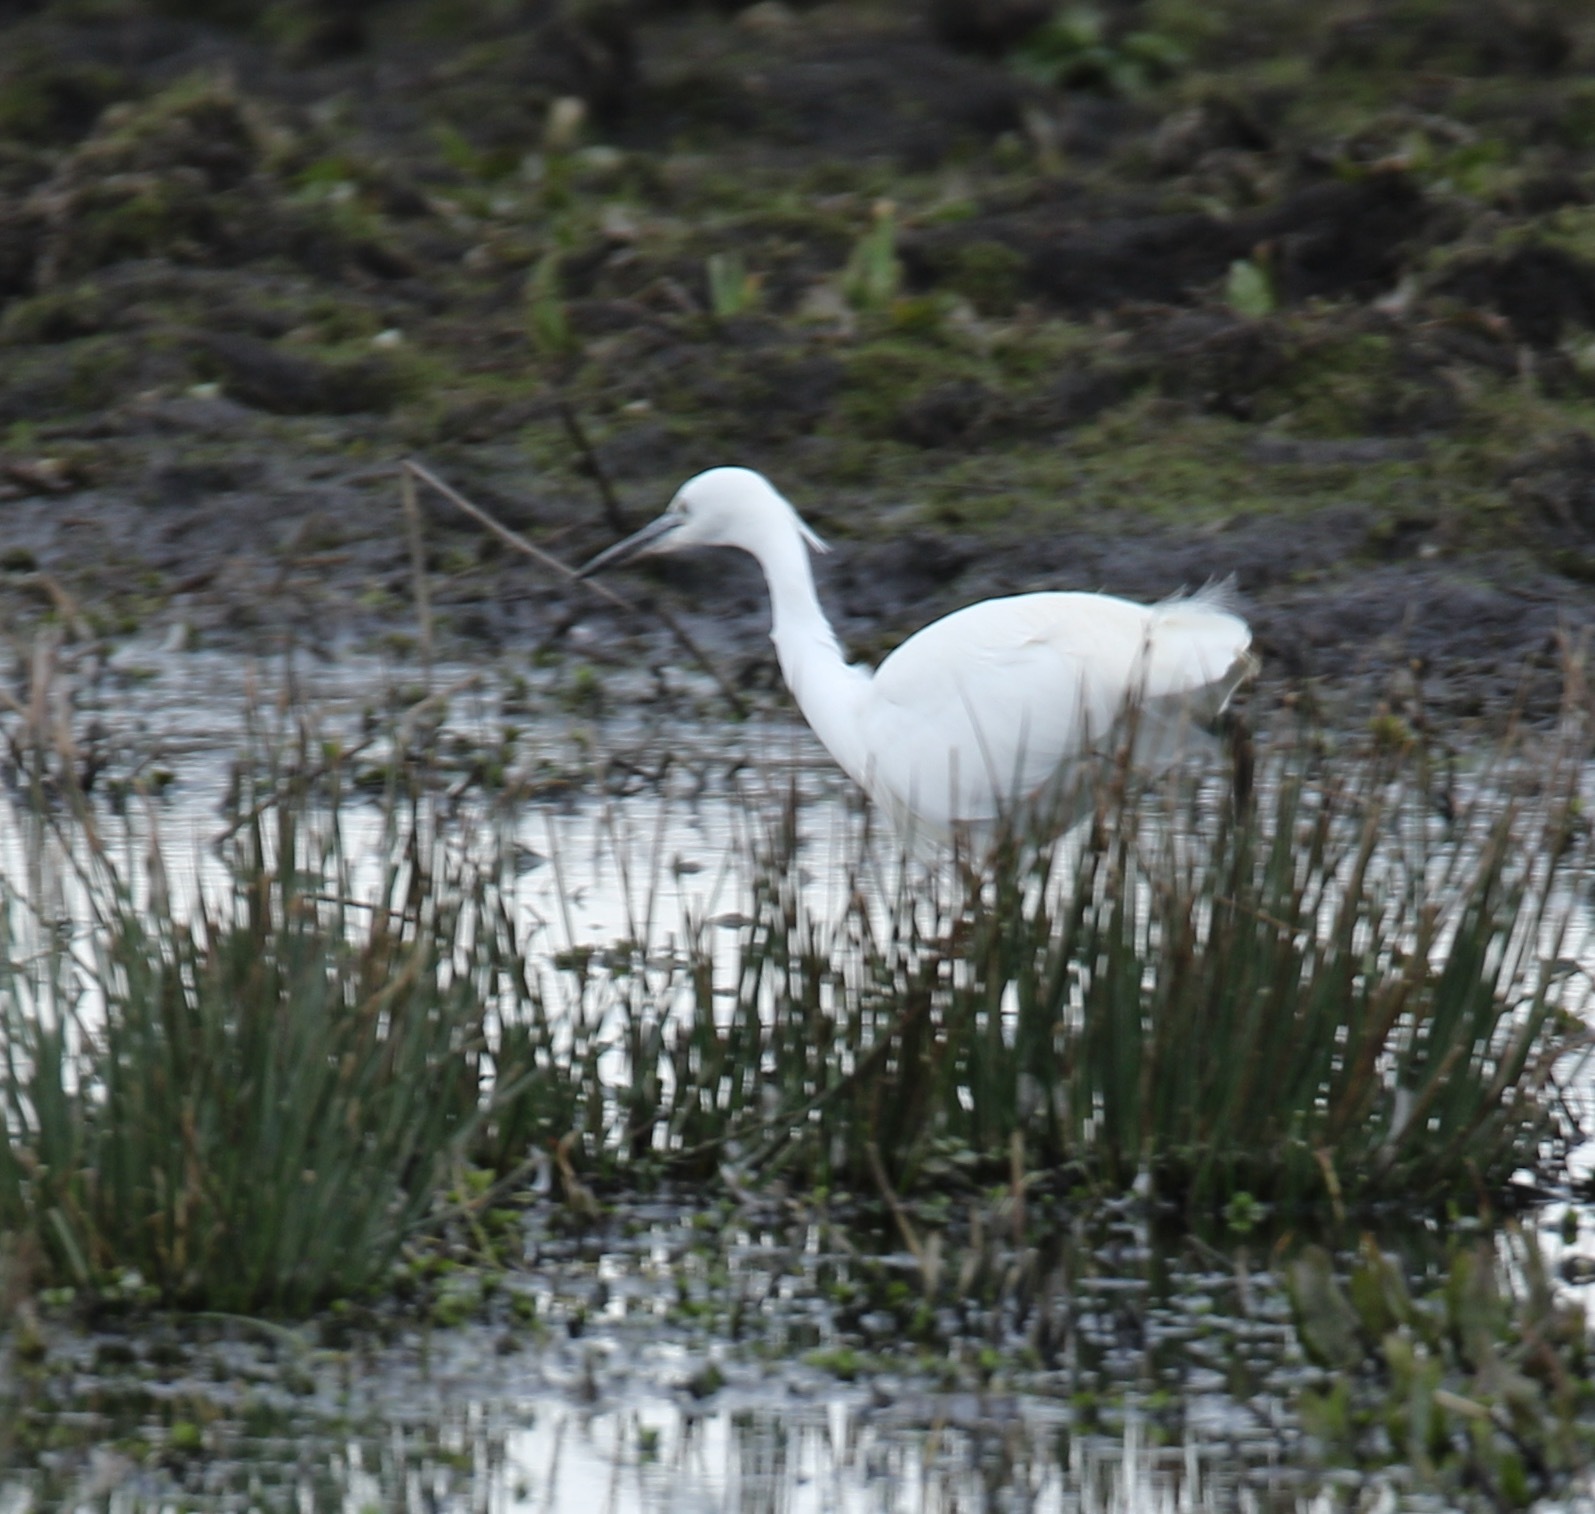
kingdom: Animalia
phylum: Chordata
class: Aves
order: Pelecaniformes
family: Ardeidae
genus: Egretta
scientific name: Egretta garzetta
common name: Little egret
